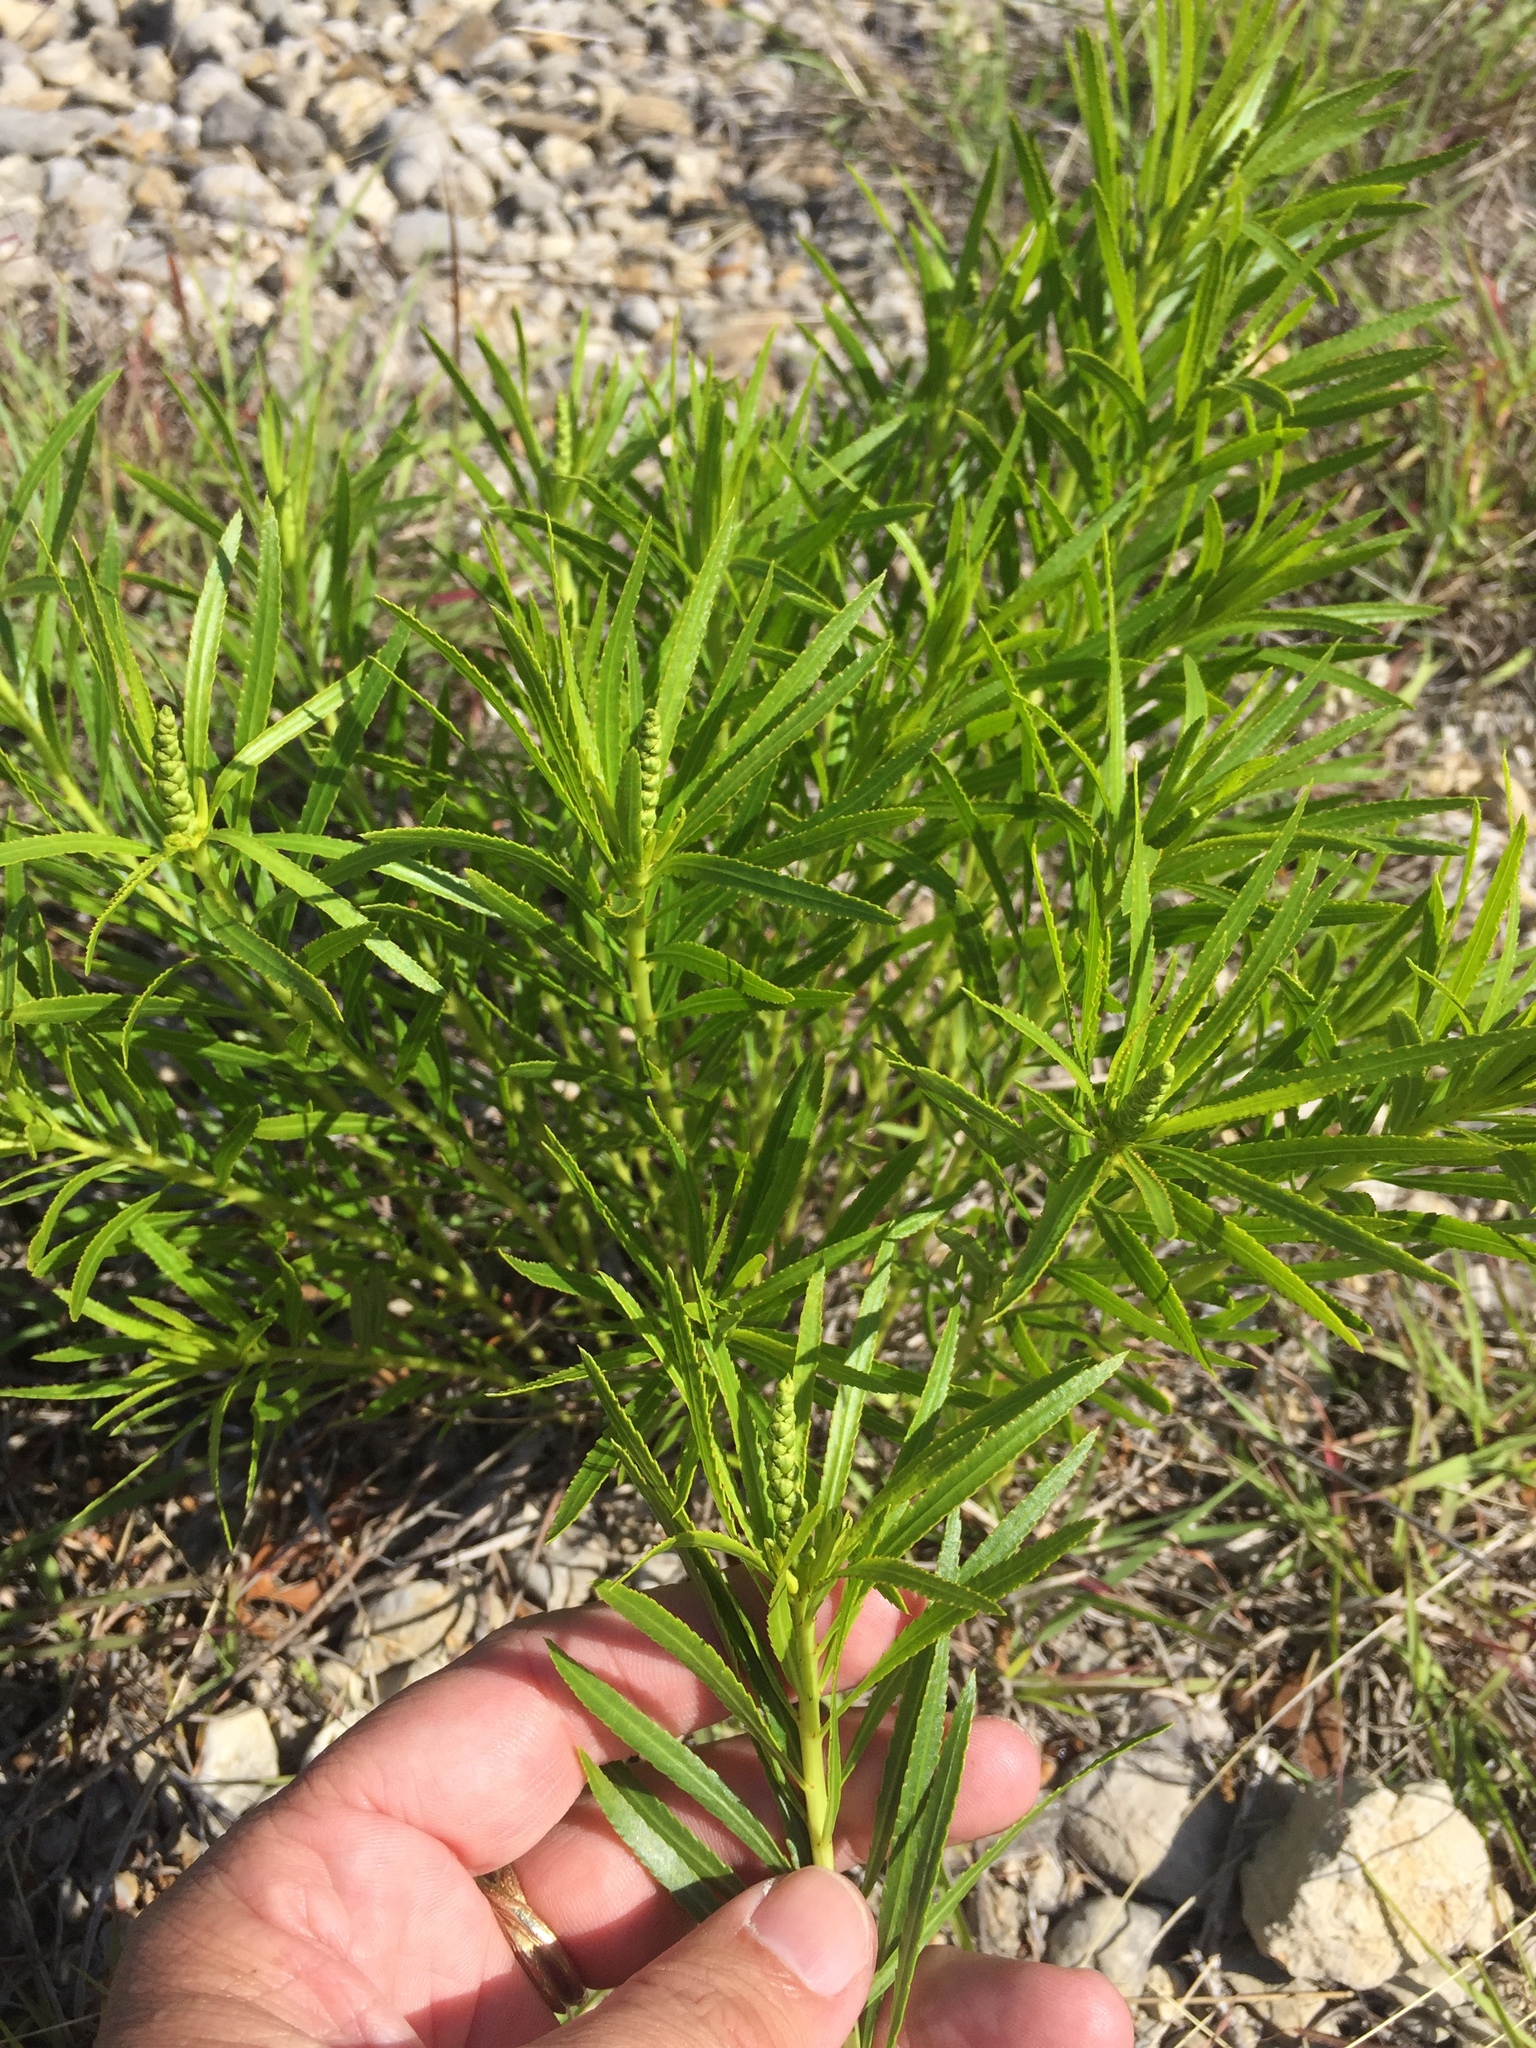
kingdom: Plantae
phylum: Tracheophyta
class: Magnoliopsida
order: Malpighiales
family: Euphorbiaceae
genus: Stillingia
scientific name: Stillingia texana
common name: Texas stillingia
